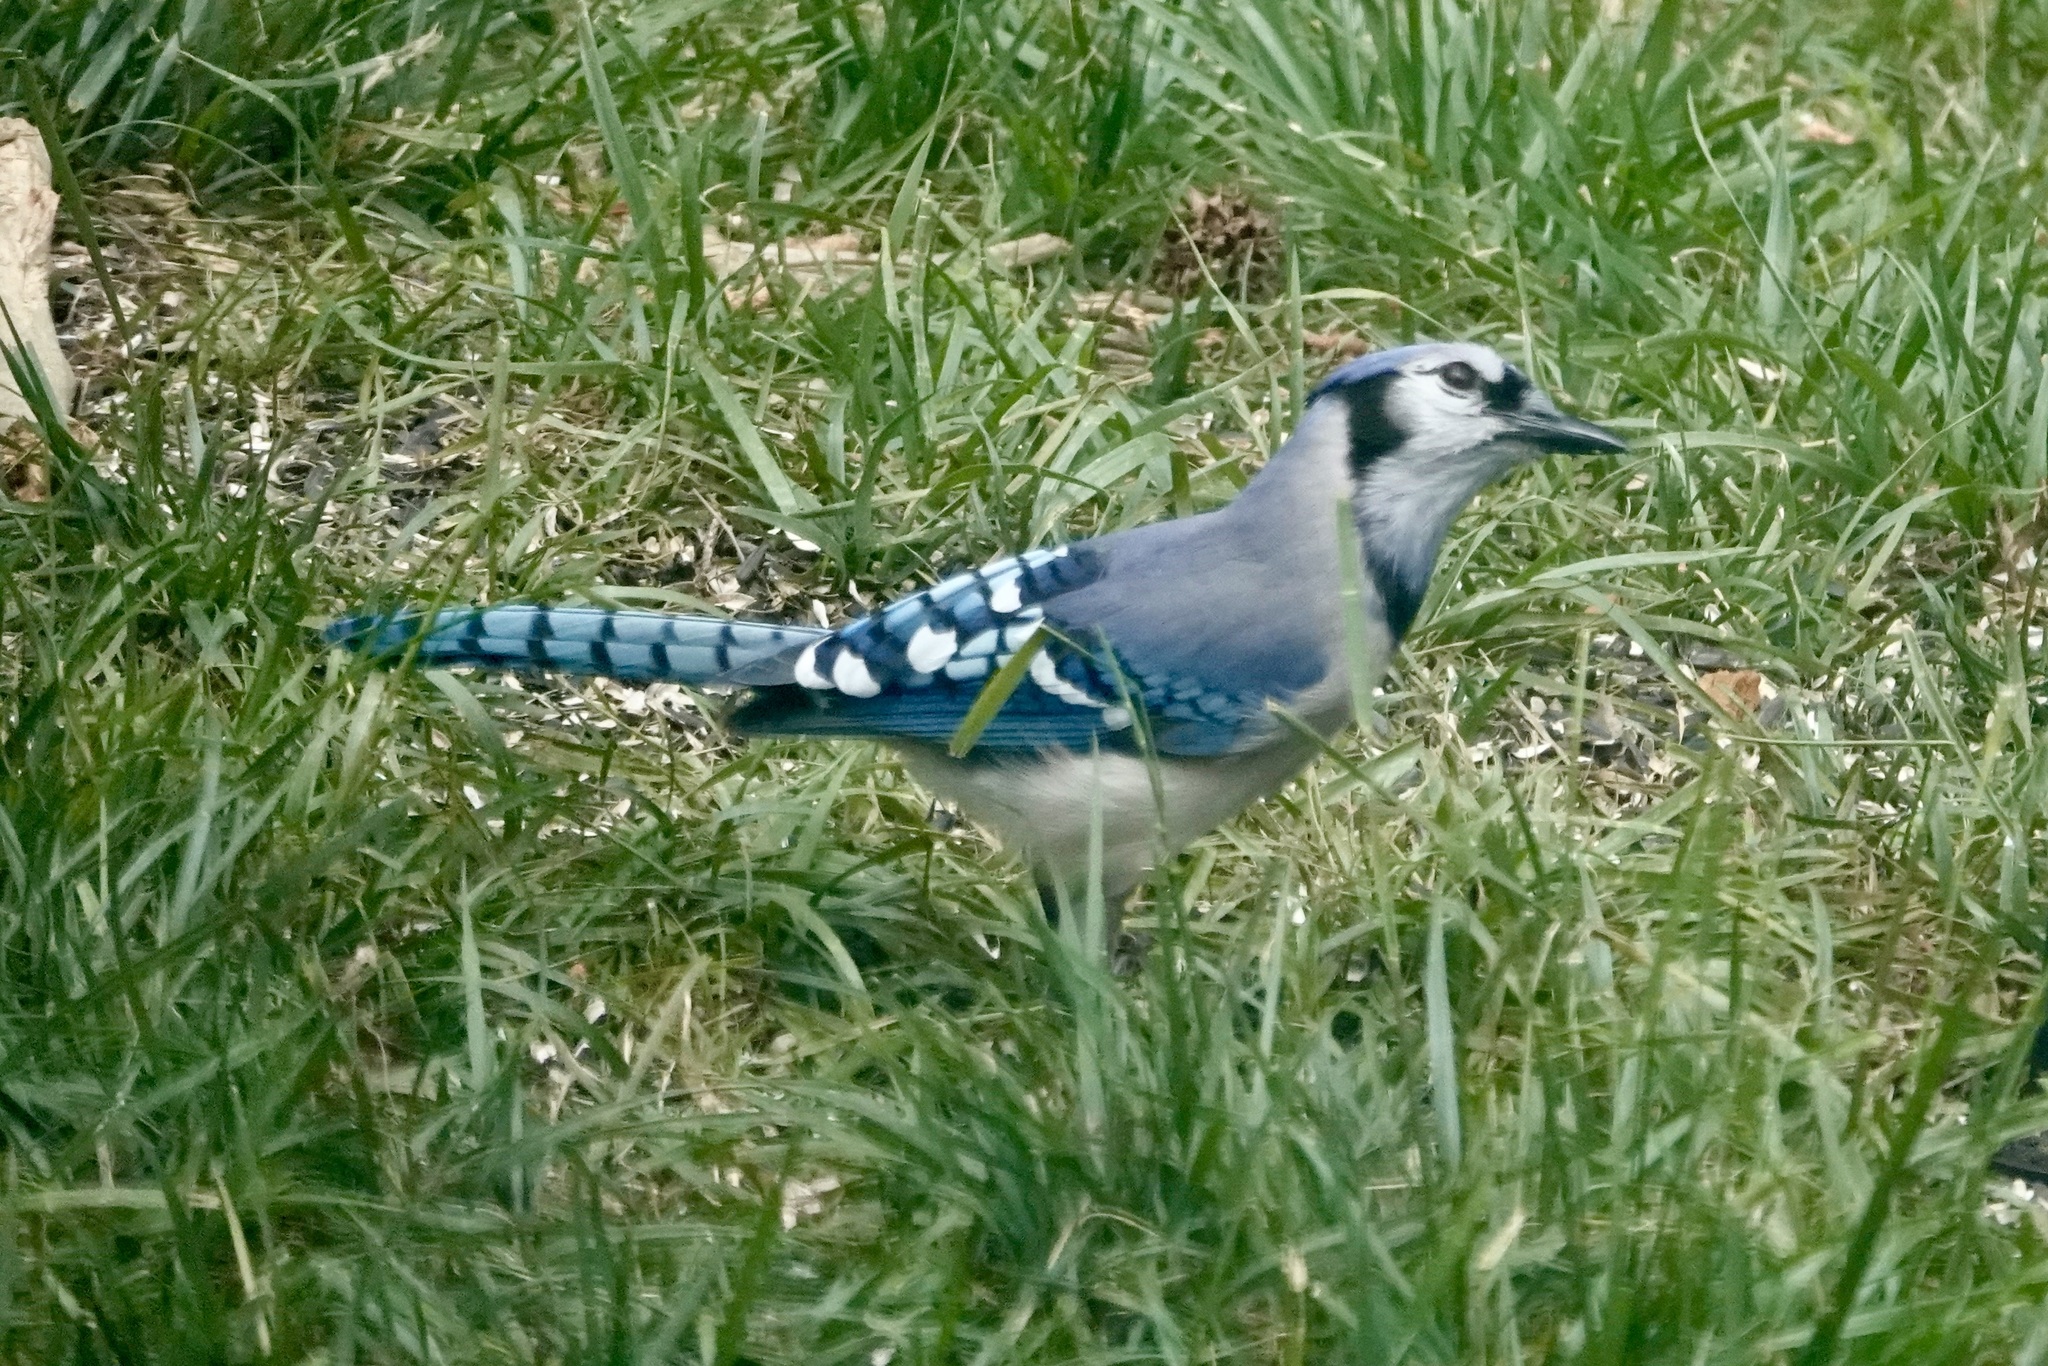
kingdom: Animalia
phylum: Chordata
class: Aves
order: Passeriformes
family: Corvidae
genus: Cyanocitta
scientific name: Cyanocitta cristata
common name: Blue jay
